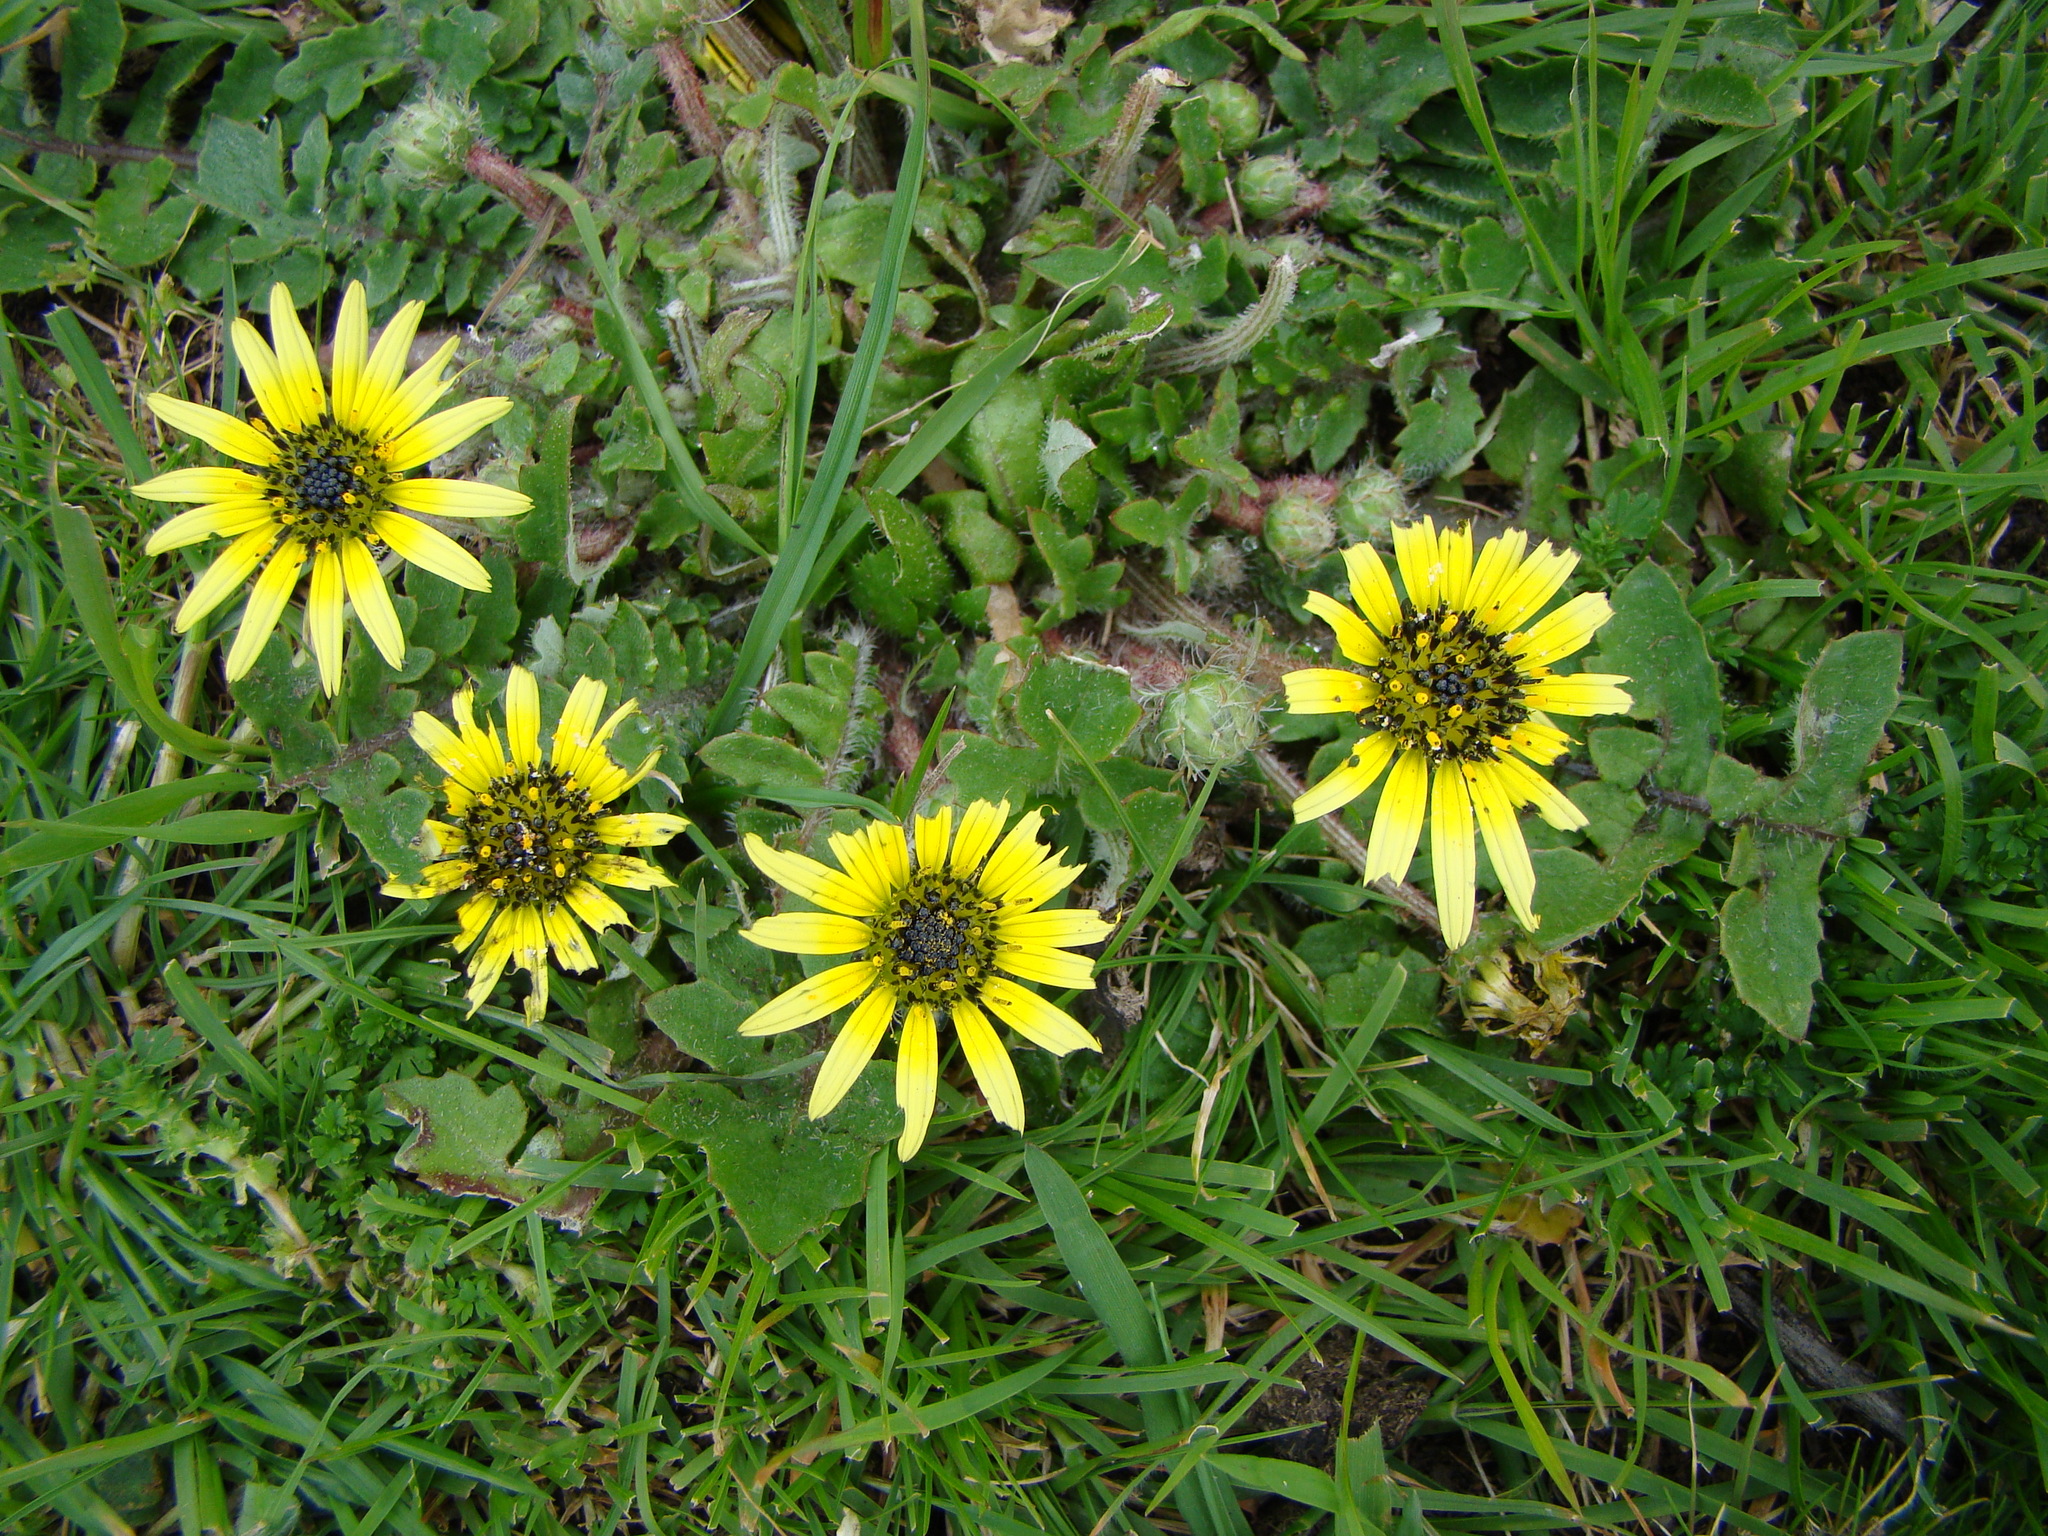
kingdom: Plantae
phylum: Tracheophyta
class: Magnoliopsida
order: Asterales
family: Asteraceae
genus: Arctotheca
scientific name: Arctotheca calendula
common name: Capeweed
